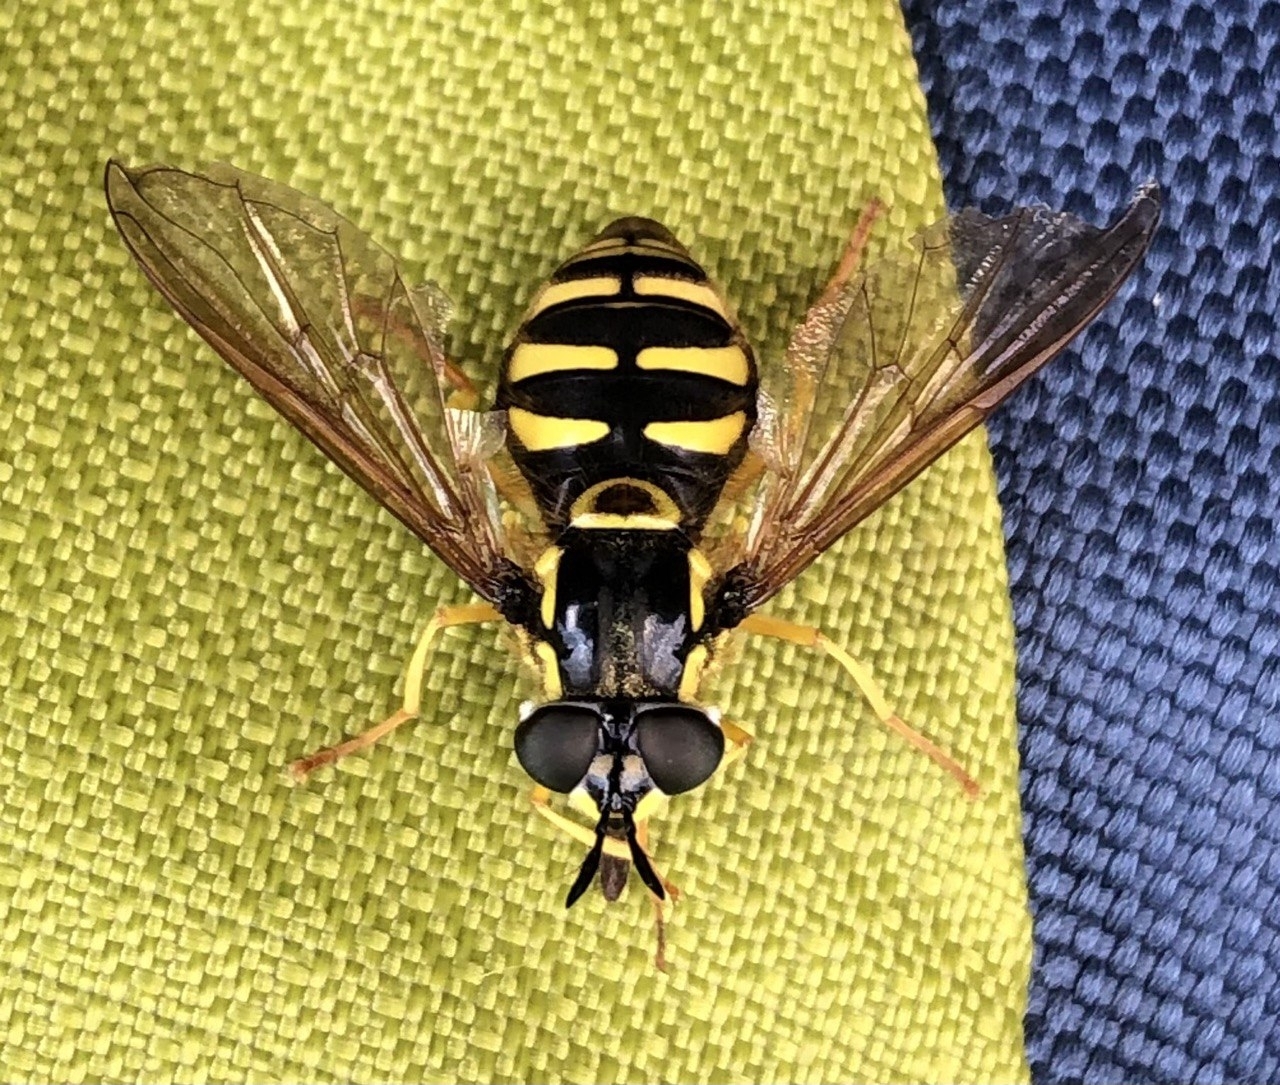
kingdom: Animalia
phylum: Arthropoda
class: Insecta
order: Diptera
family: Syrphidae
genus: Chrysotoxum
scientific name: Chrysotoxum cautum
